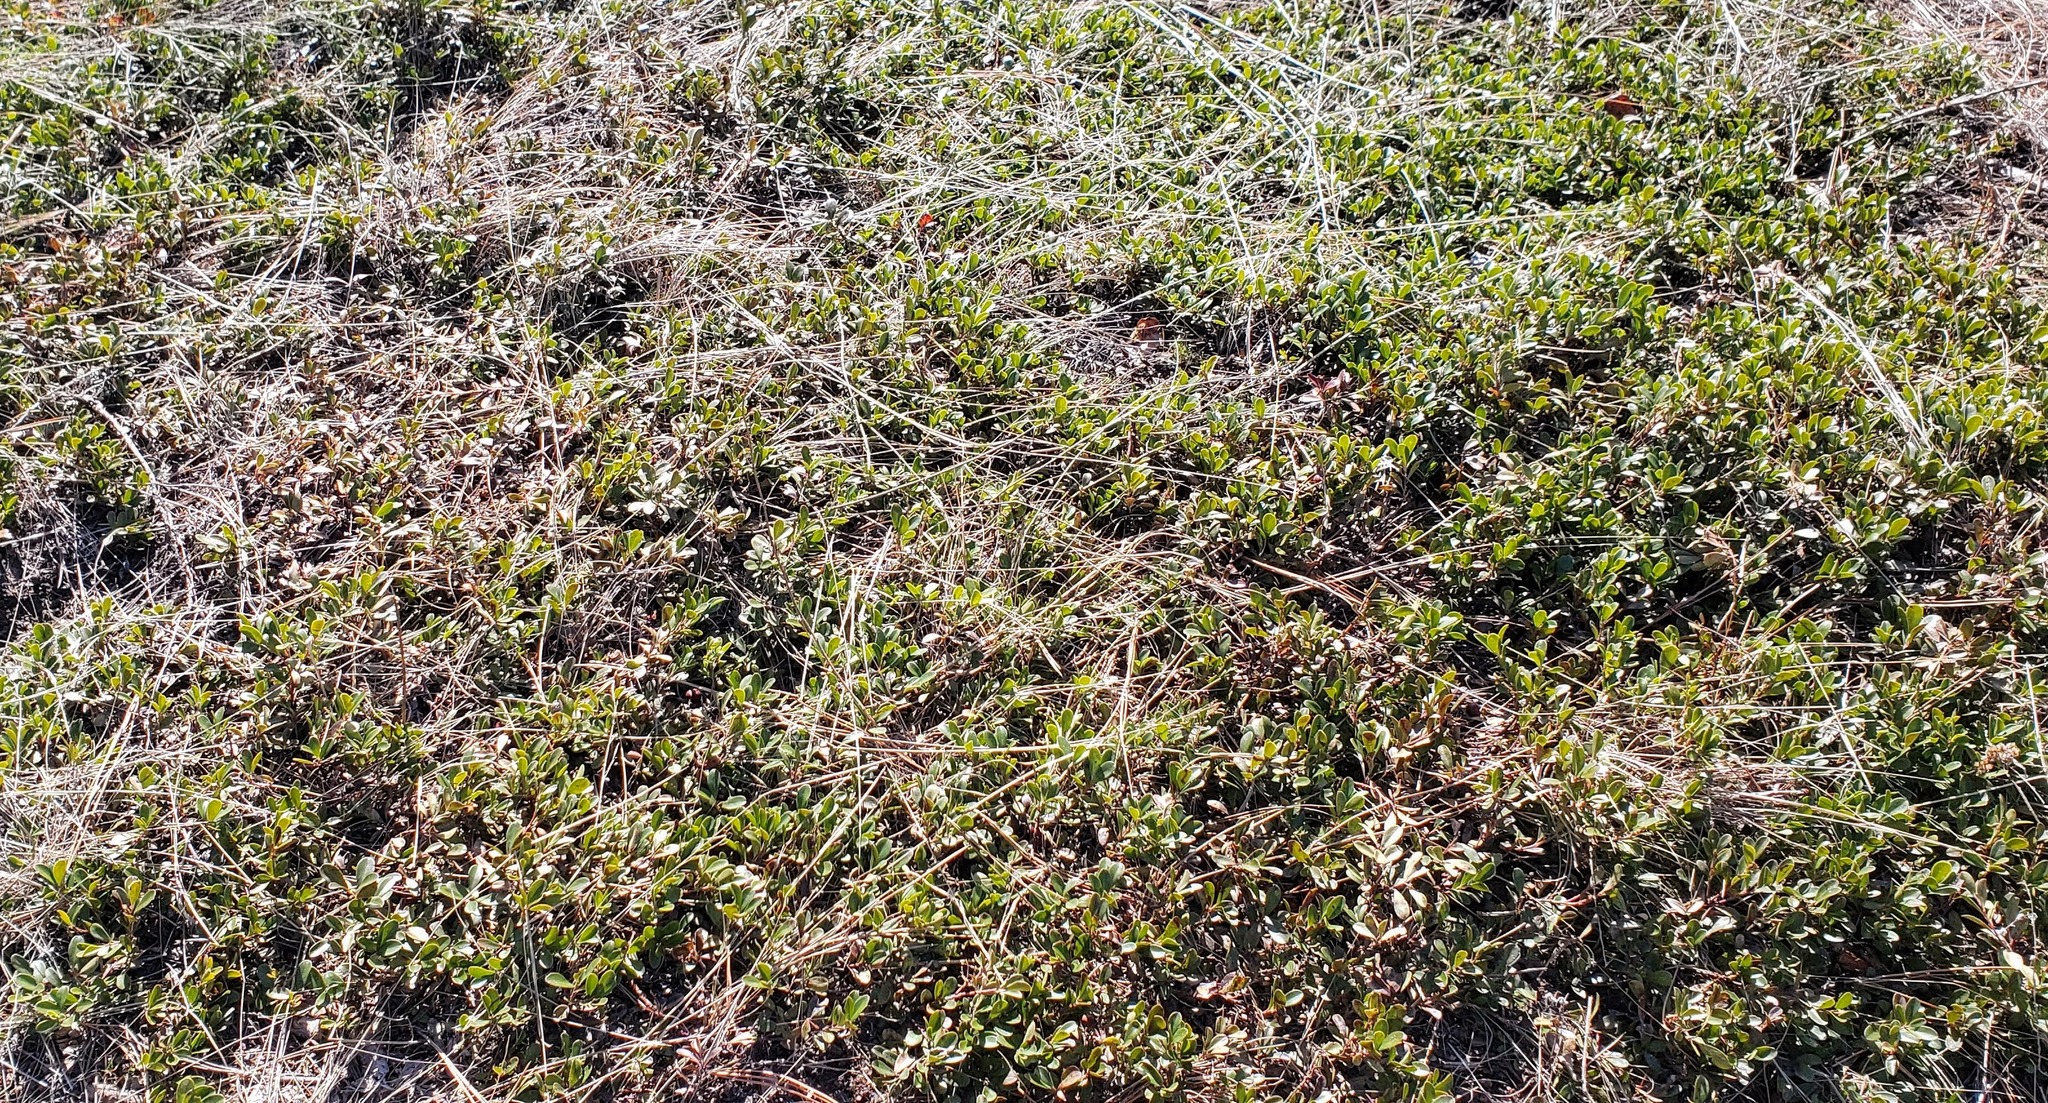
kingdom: Plantae
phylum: Tracheophyta
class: Magnoliopsida
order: Ericales
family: Ericaceae
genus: Arctostaphylos
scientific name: Arctostaphylos uva-ursi
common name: Bearberry
